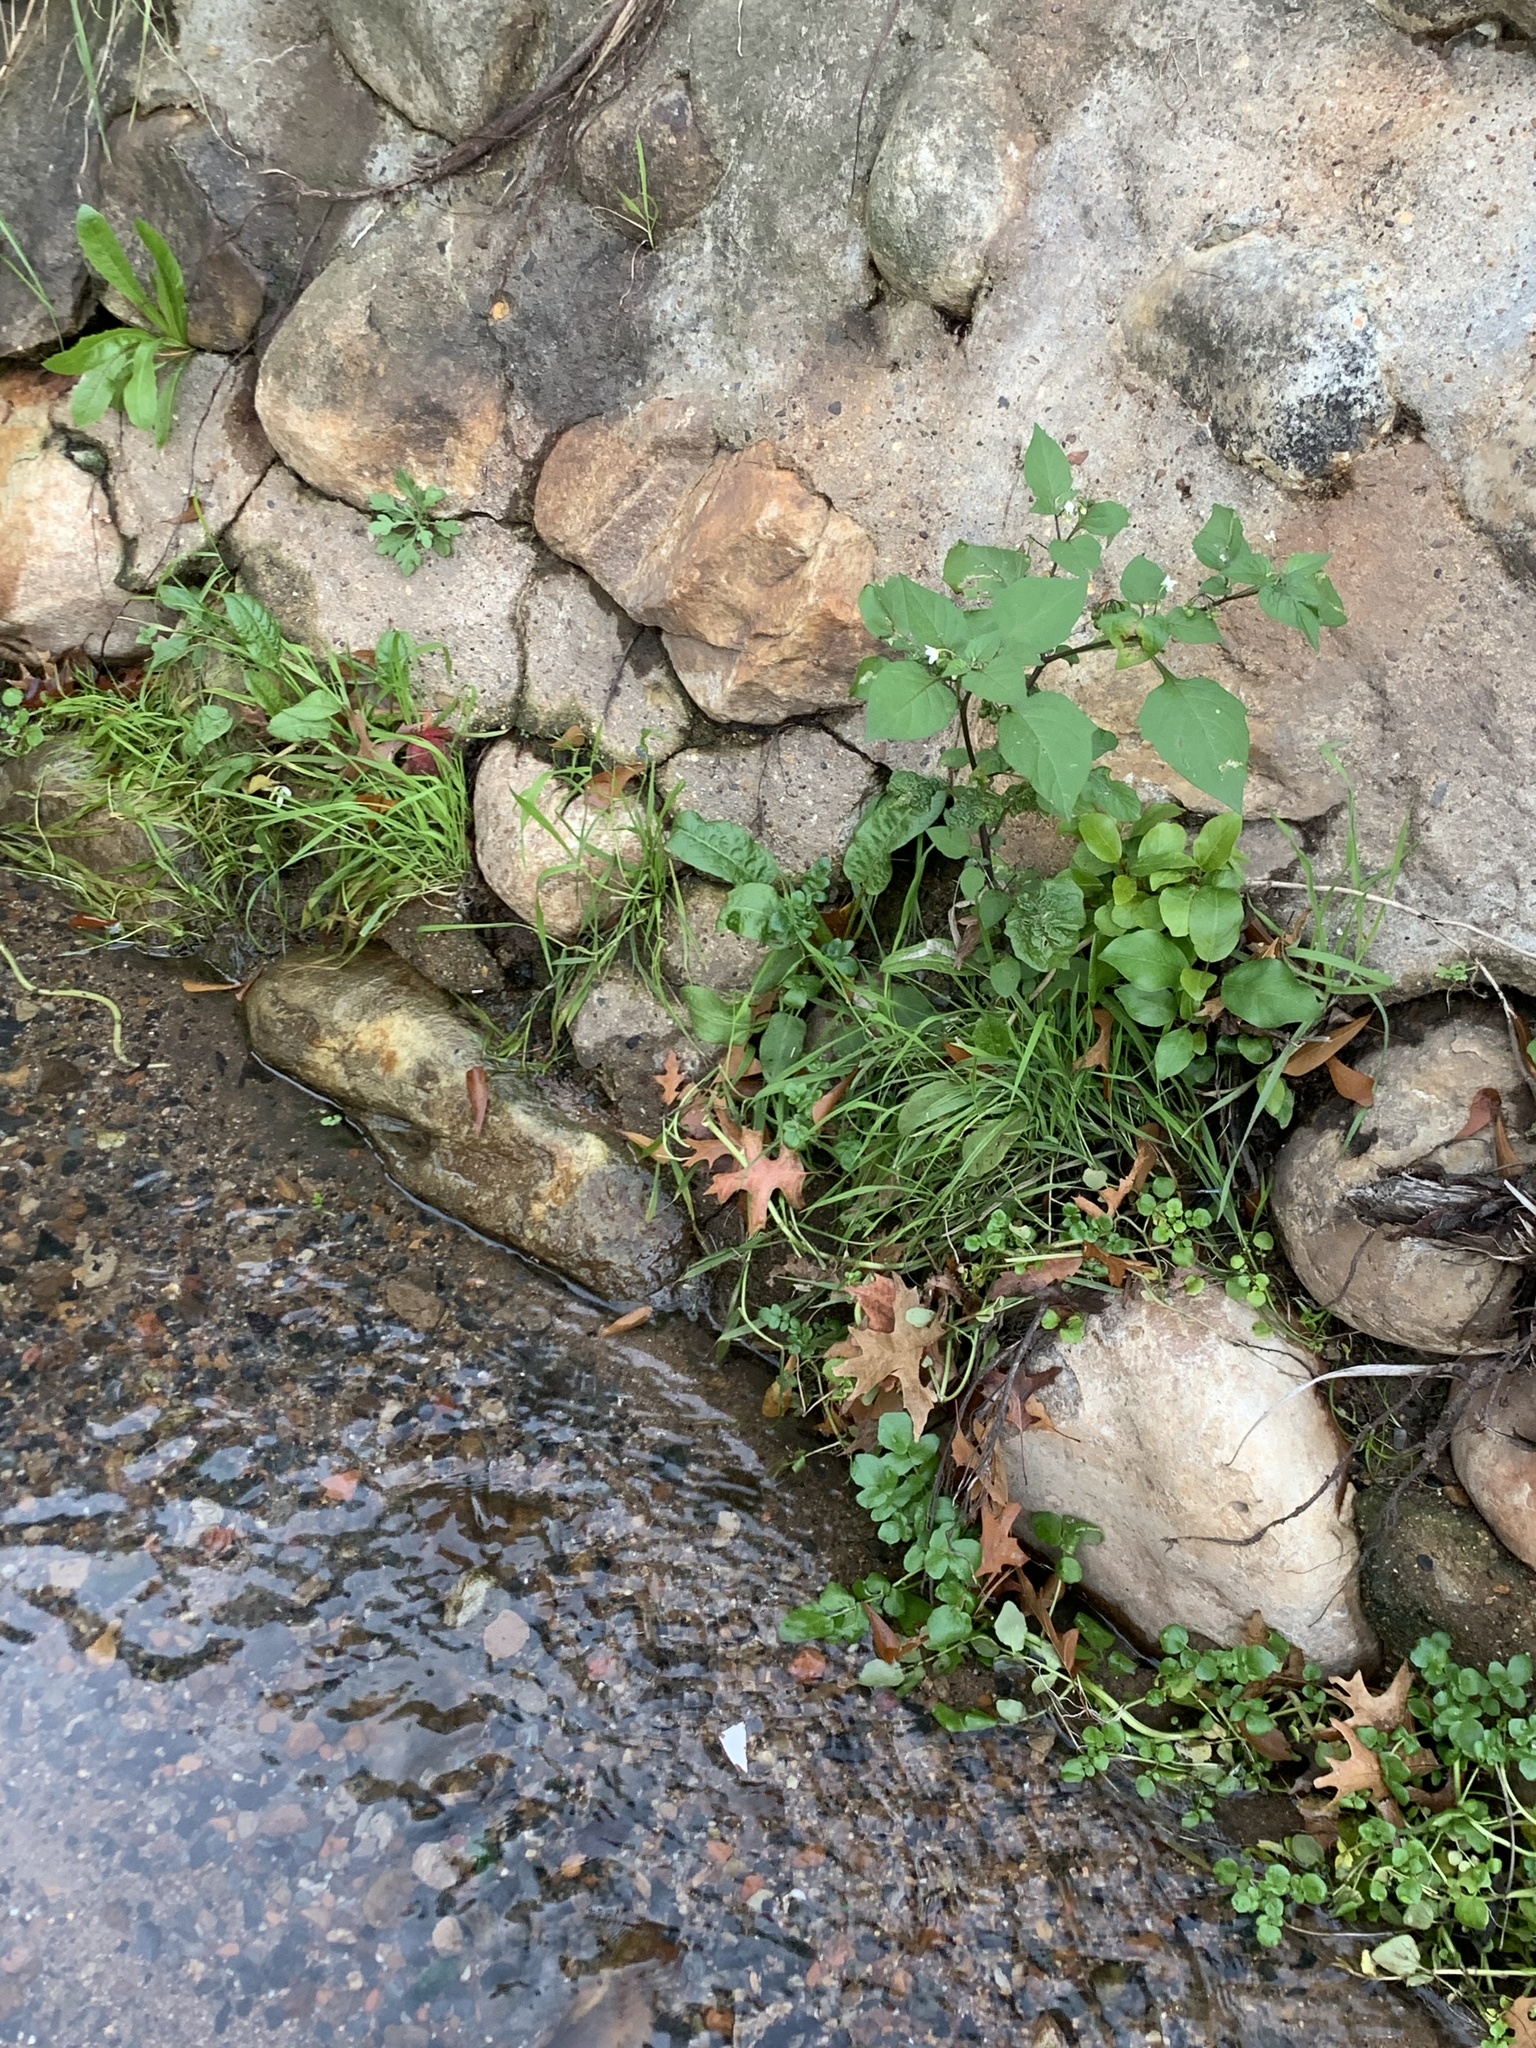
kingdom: Plantae
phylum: Tracheophyta
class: Magnoliopsida
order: Solanales
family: Solanaceae
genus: Solanum
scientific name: Solanum nigrum
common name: Black nightshade
